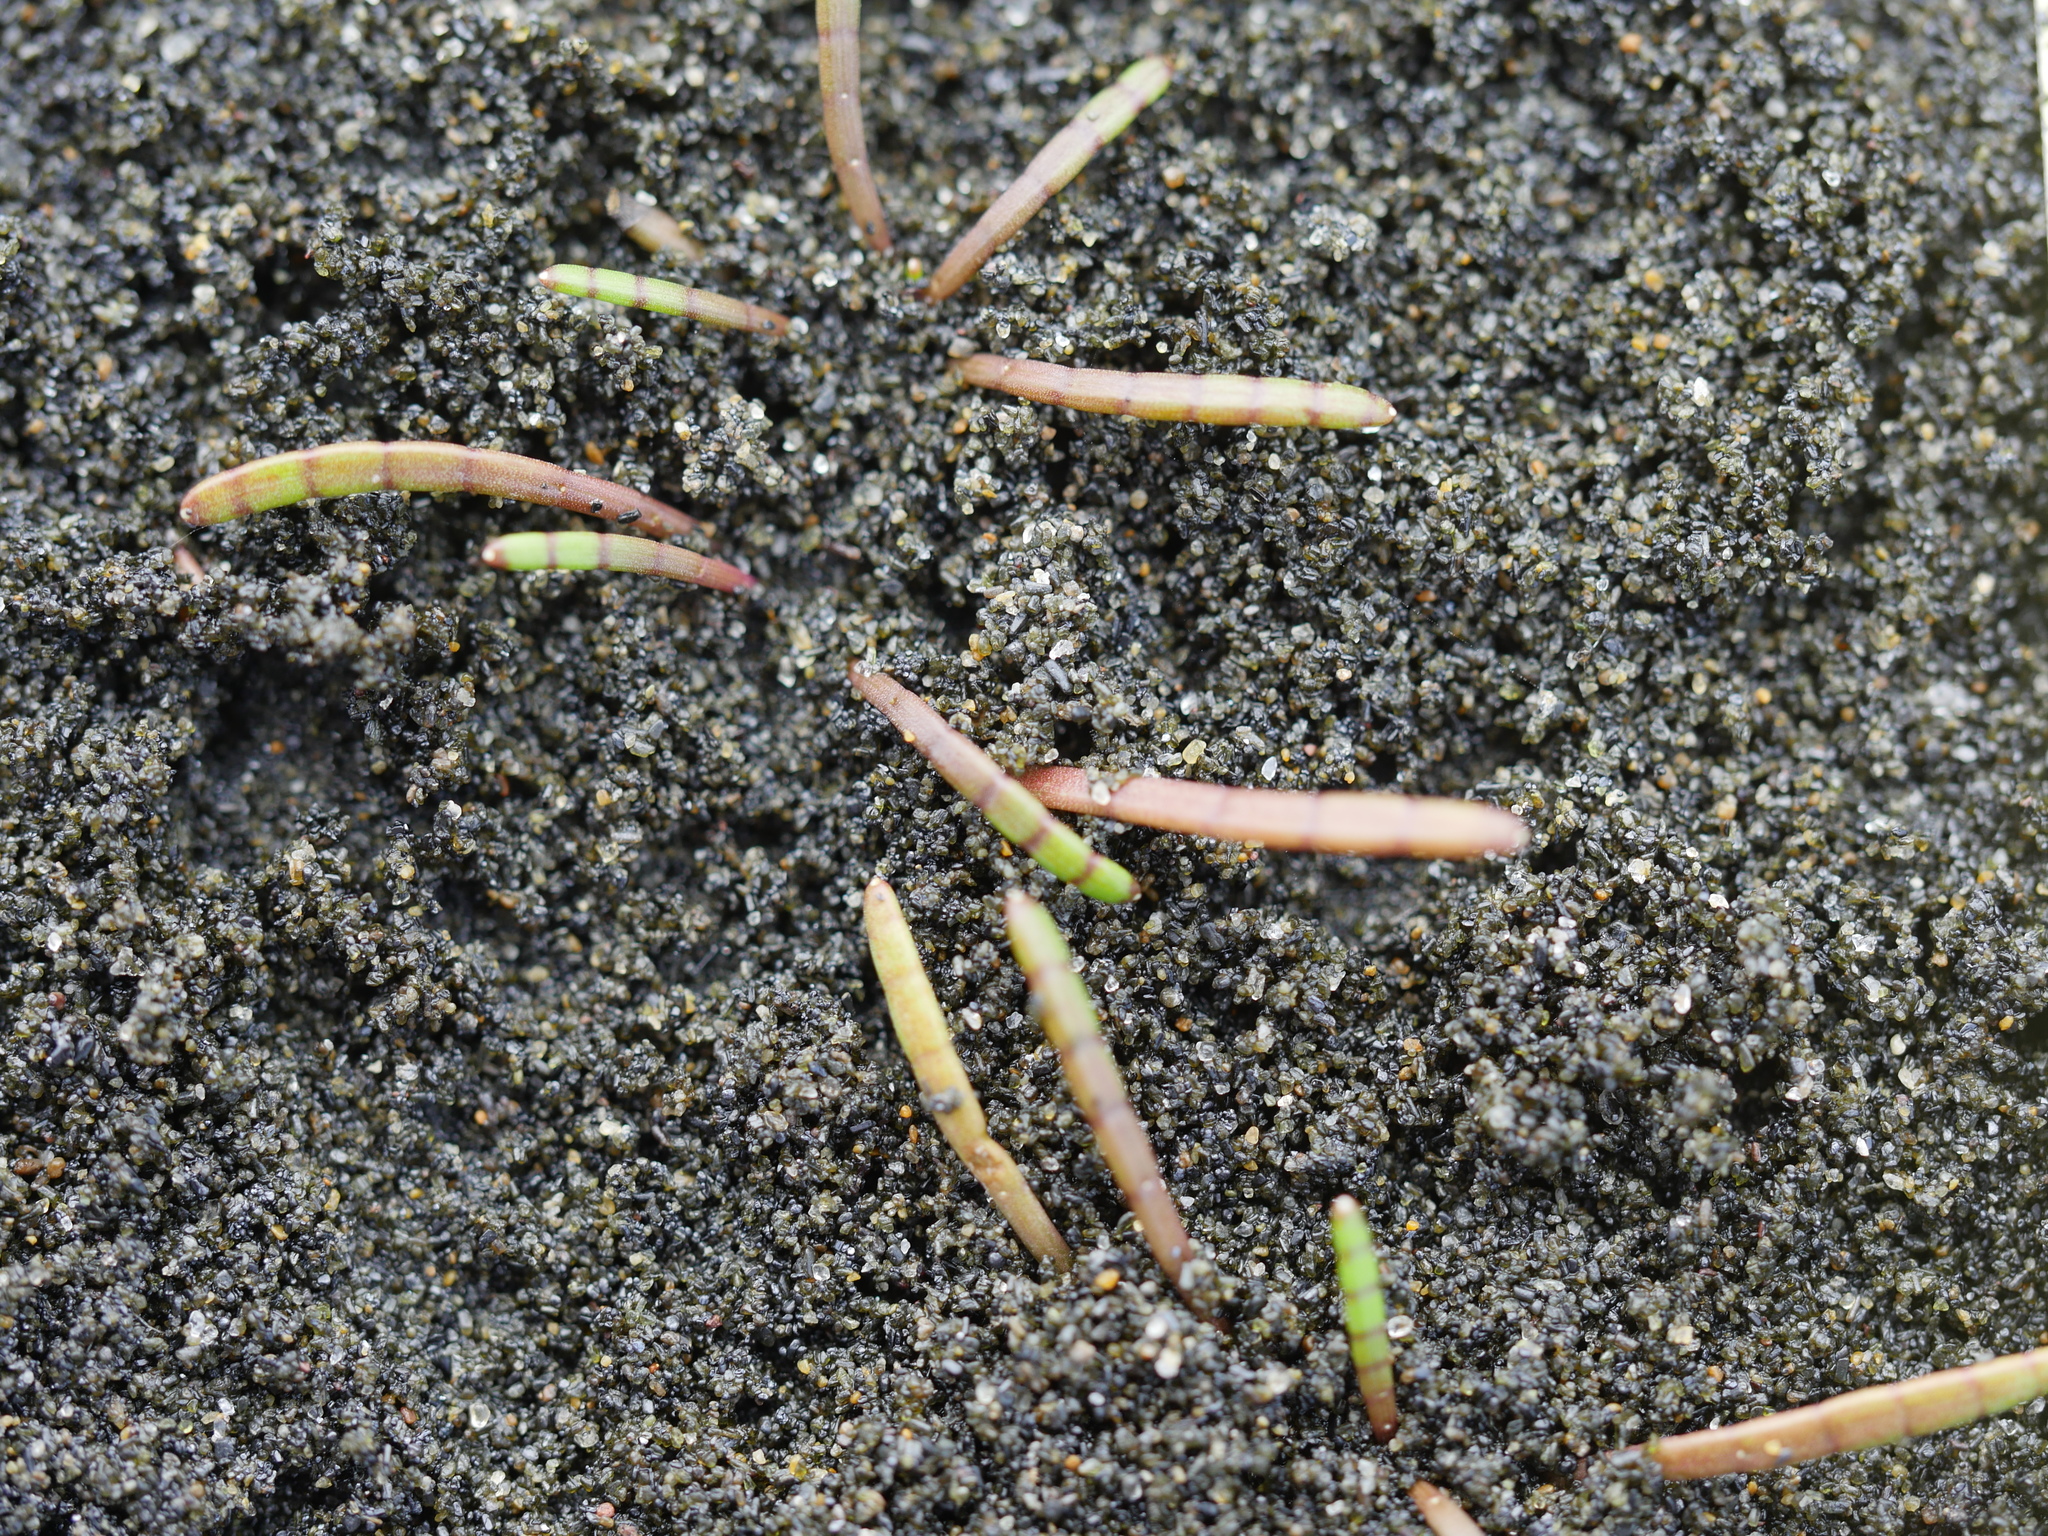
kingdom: Plantae
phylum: Tracheophyta
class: Magnoliopsida
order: Apiales
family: Apiaceae
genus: Lilaeopsis
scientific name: Lilaeopsis novae-zelandiae
